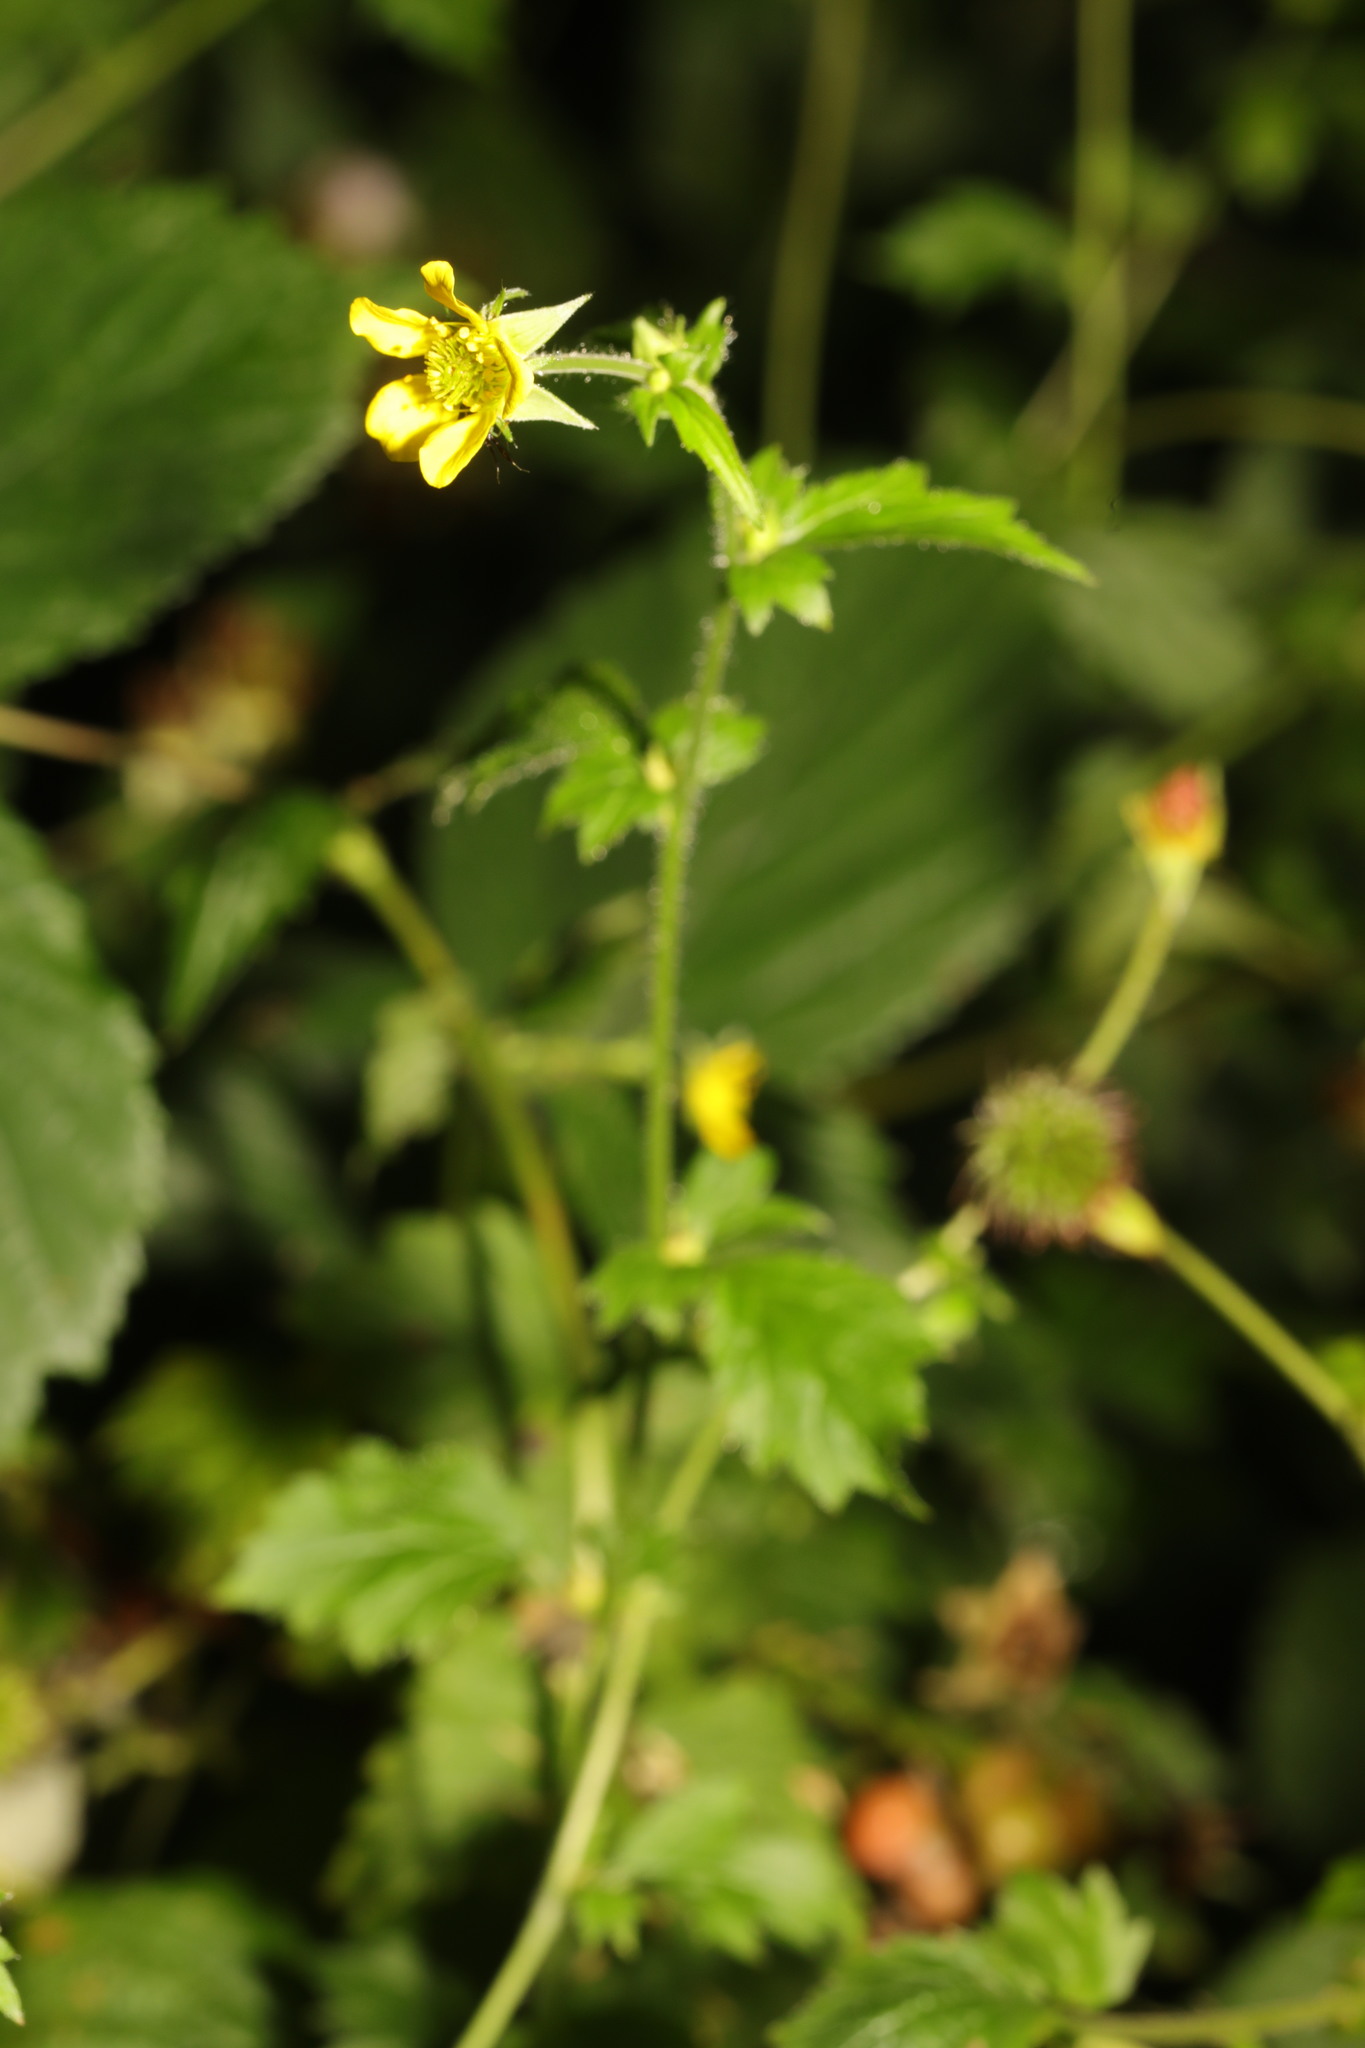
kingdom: Plantae
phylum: Tracheophyta
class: Magnoliopsida
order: Rosales
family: Rosaceae
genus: Geum
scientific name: Geum urbanum
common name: Wood avens
